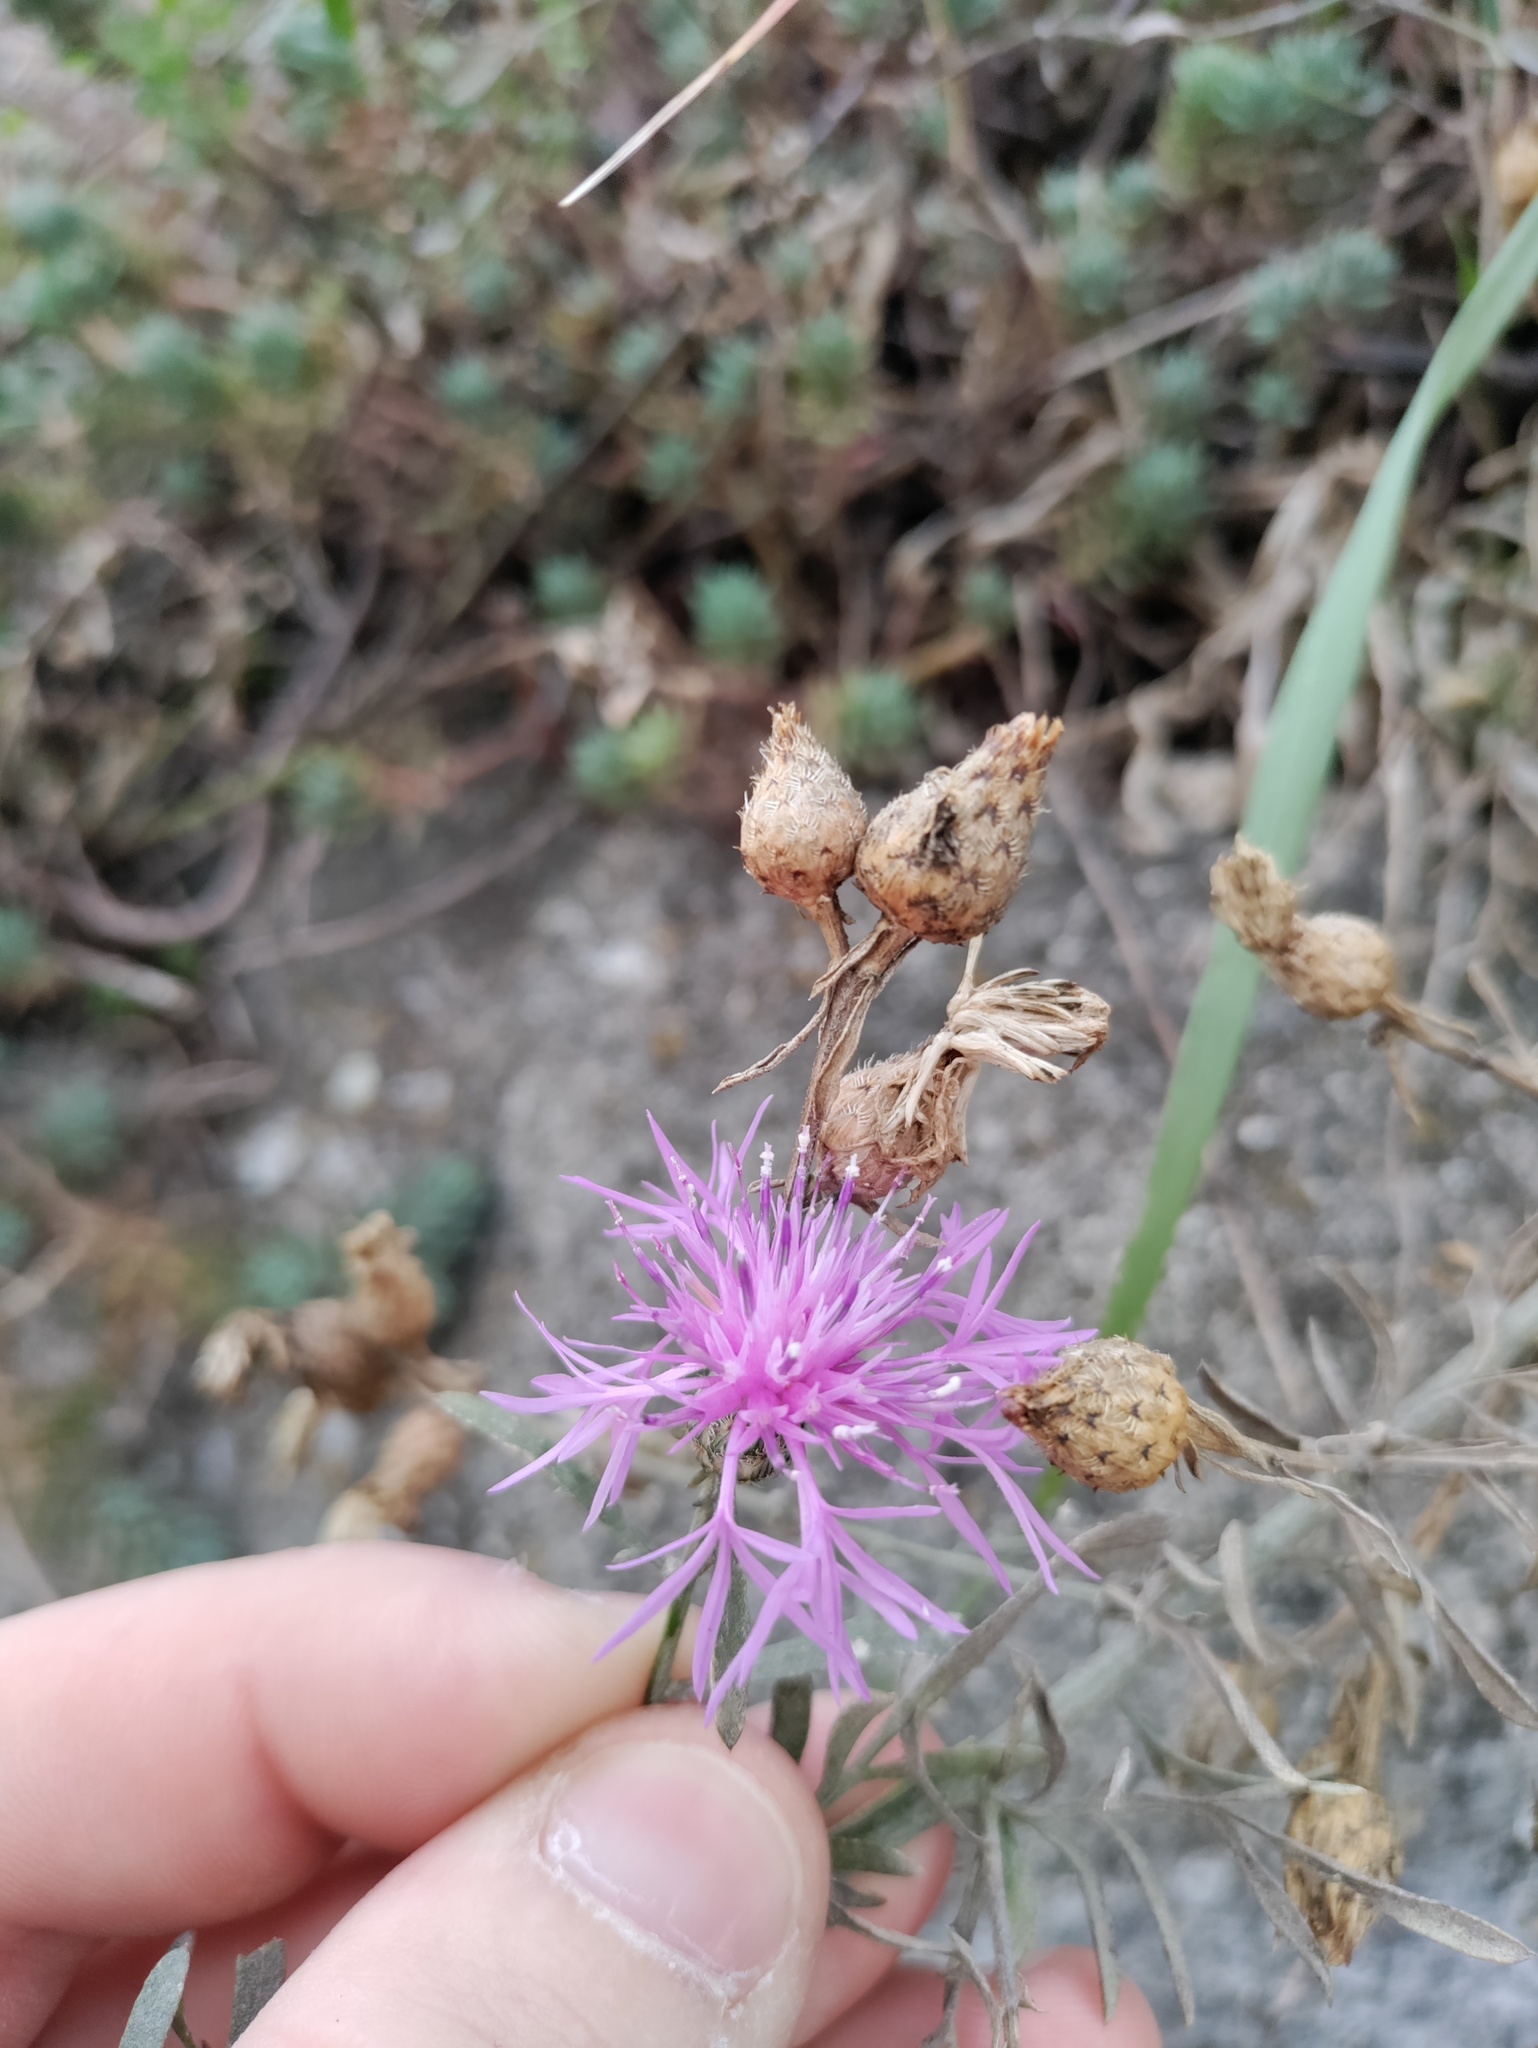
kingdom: Plantae
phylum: Tracheophyta
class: Magnoliopsida
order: Asterales
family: Asteraceae
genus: Centaurea
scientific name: Centaurea stoebe
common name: Spotted knapweed
